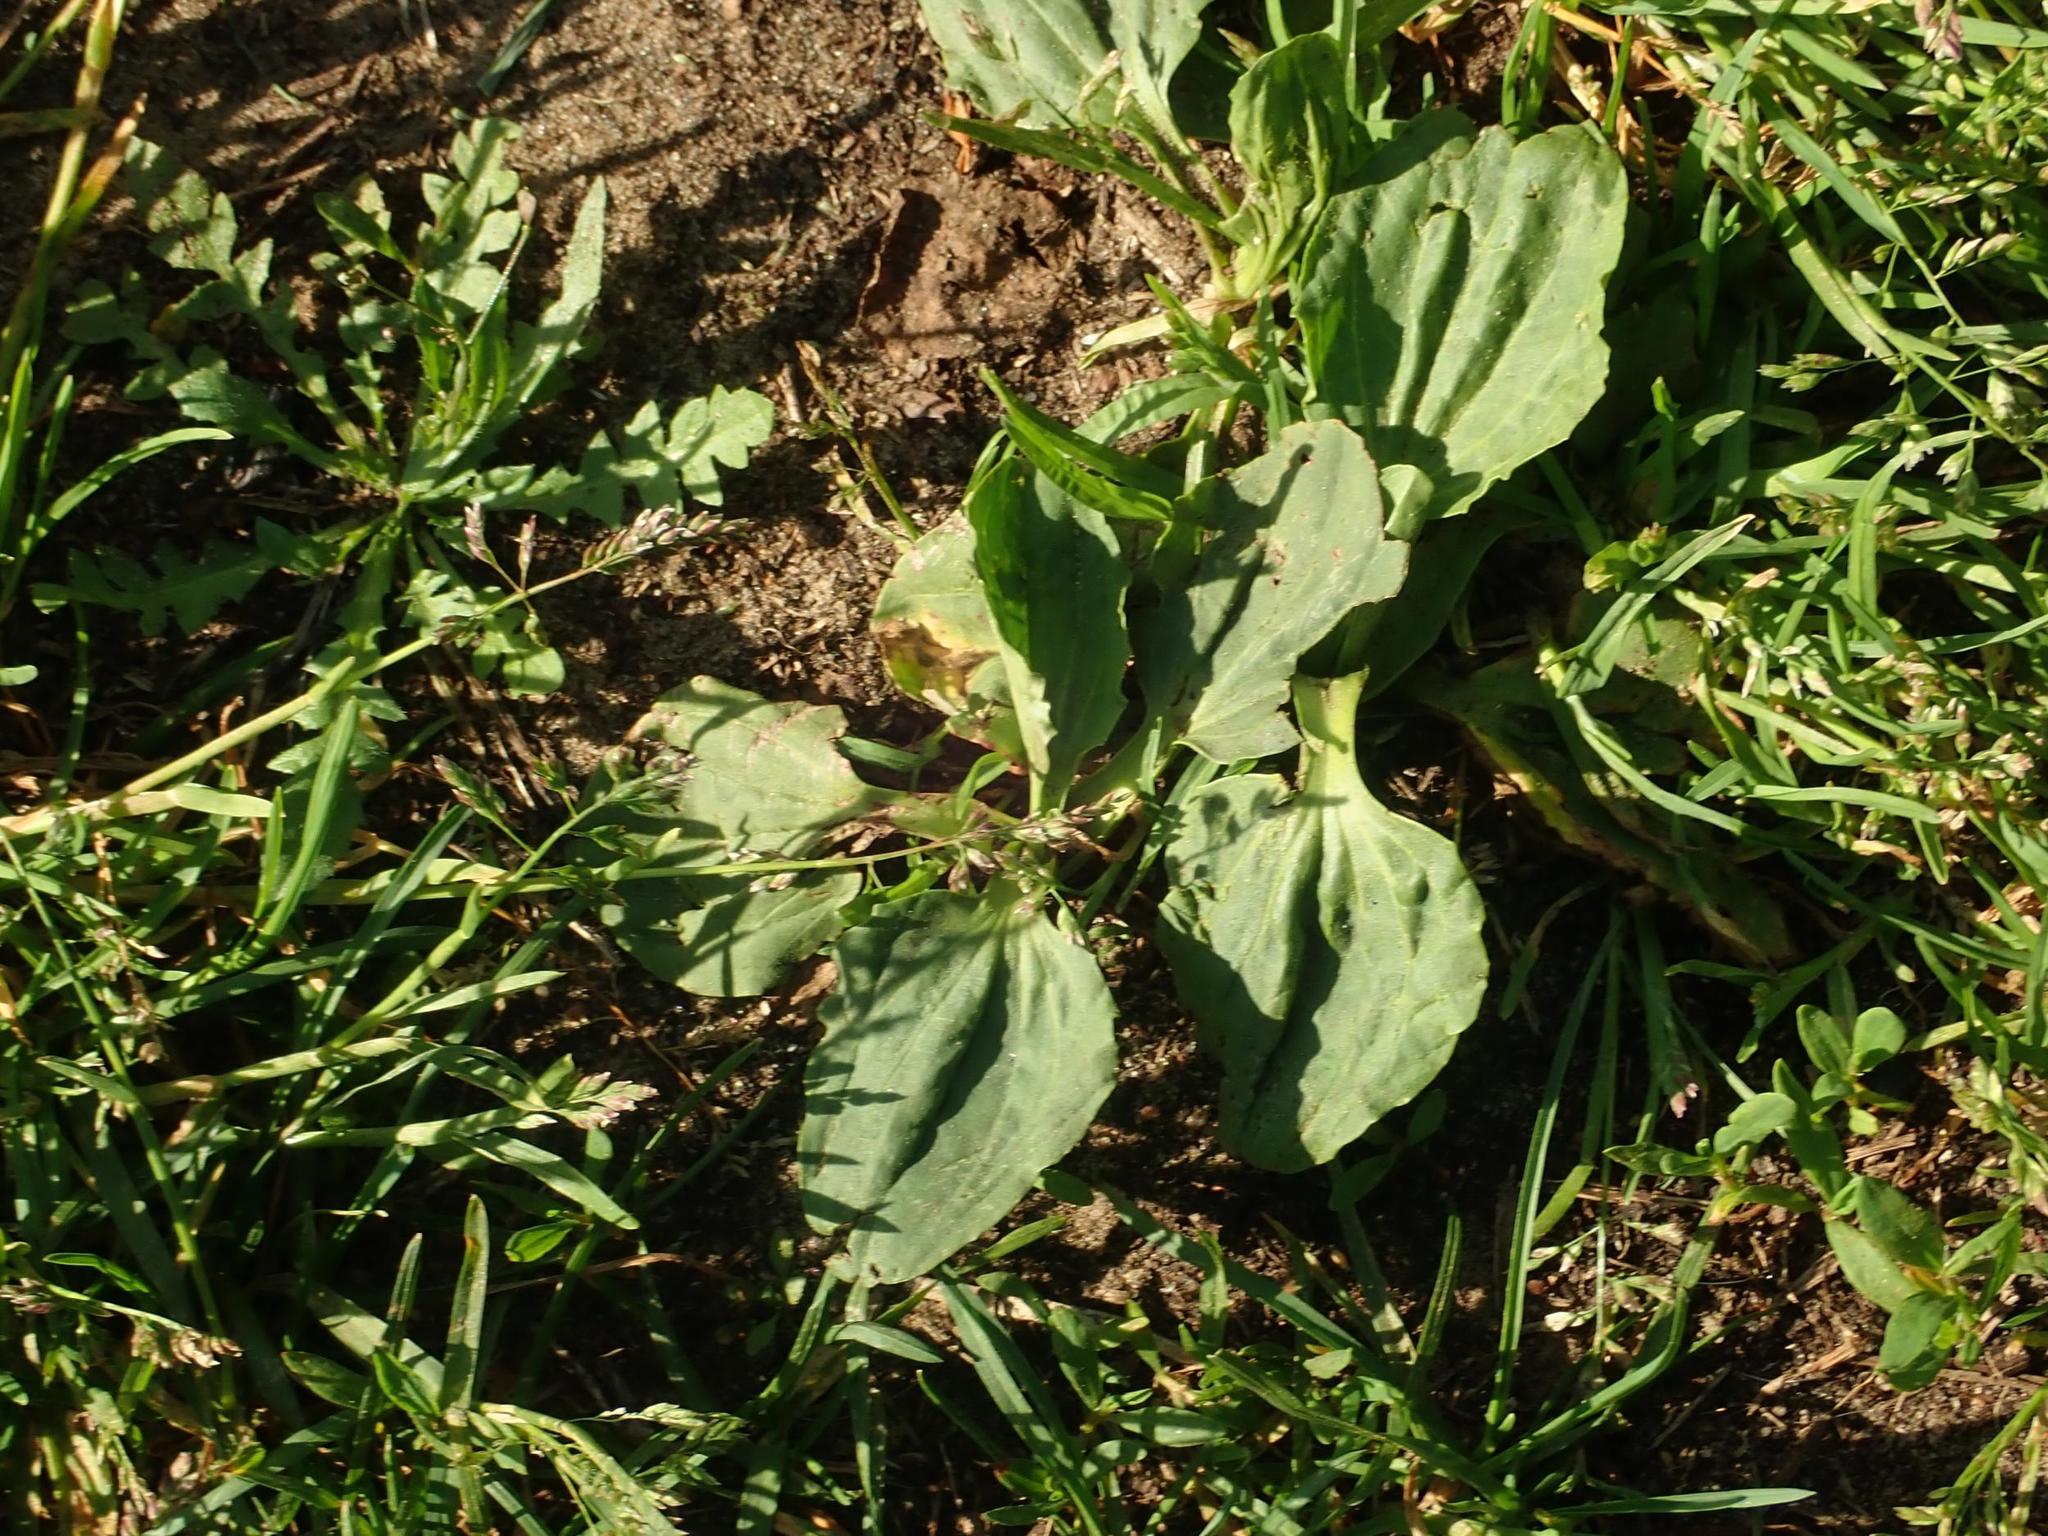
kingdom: Plantae
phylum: Tracheophyta
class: Magnoliopsida
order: Lamiales
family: Plantaginaceae
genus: Plantago
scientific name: Plantago major
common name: Common plantain
